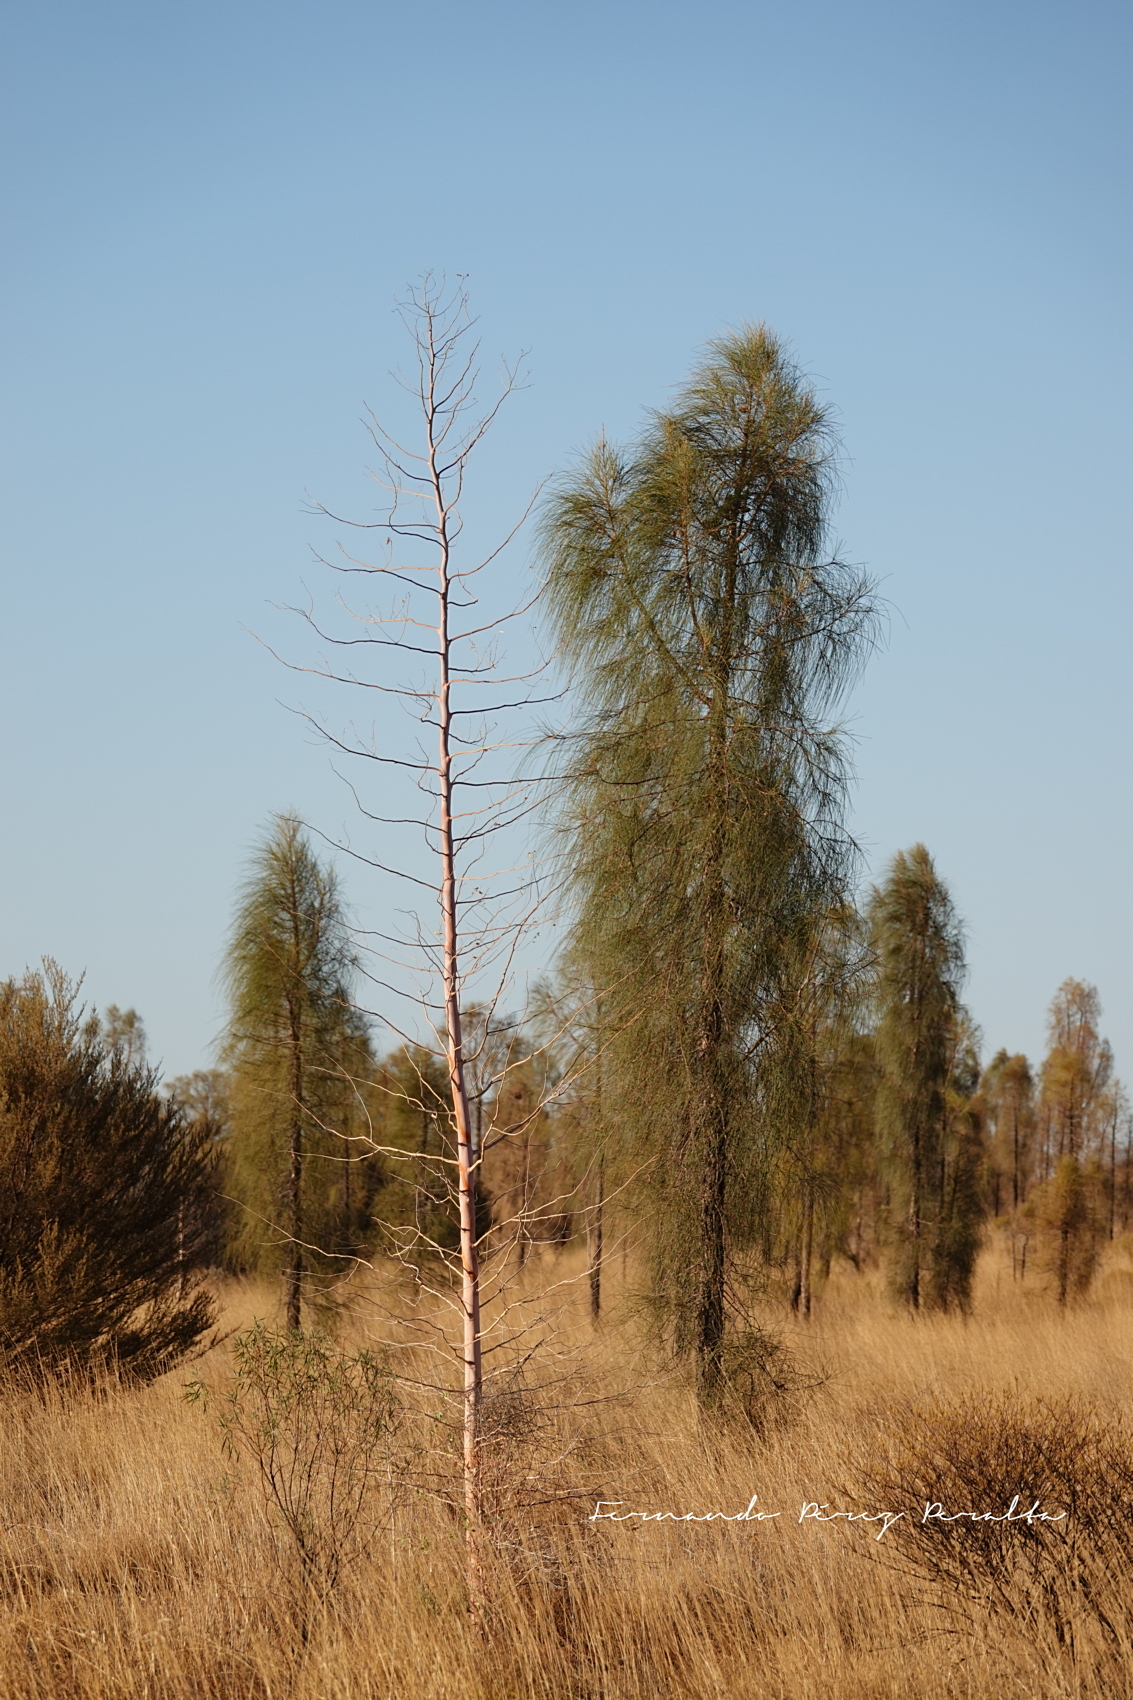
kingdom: Plantae
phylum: Tracheophyta
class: Magnoliopsida
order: Fagales
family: Casuarinaceae
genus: Allocasuarina
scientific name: Allocasuarina decaisneana
